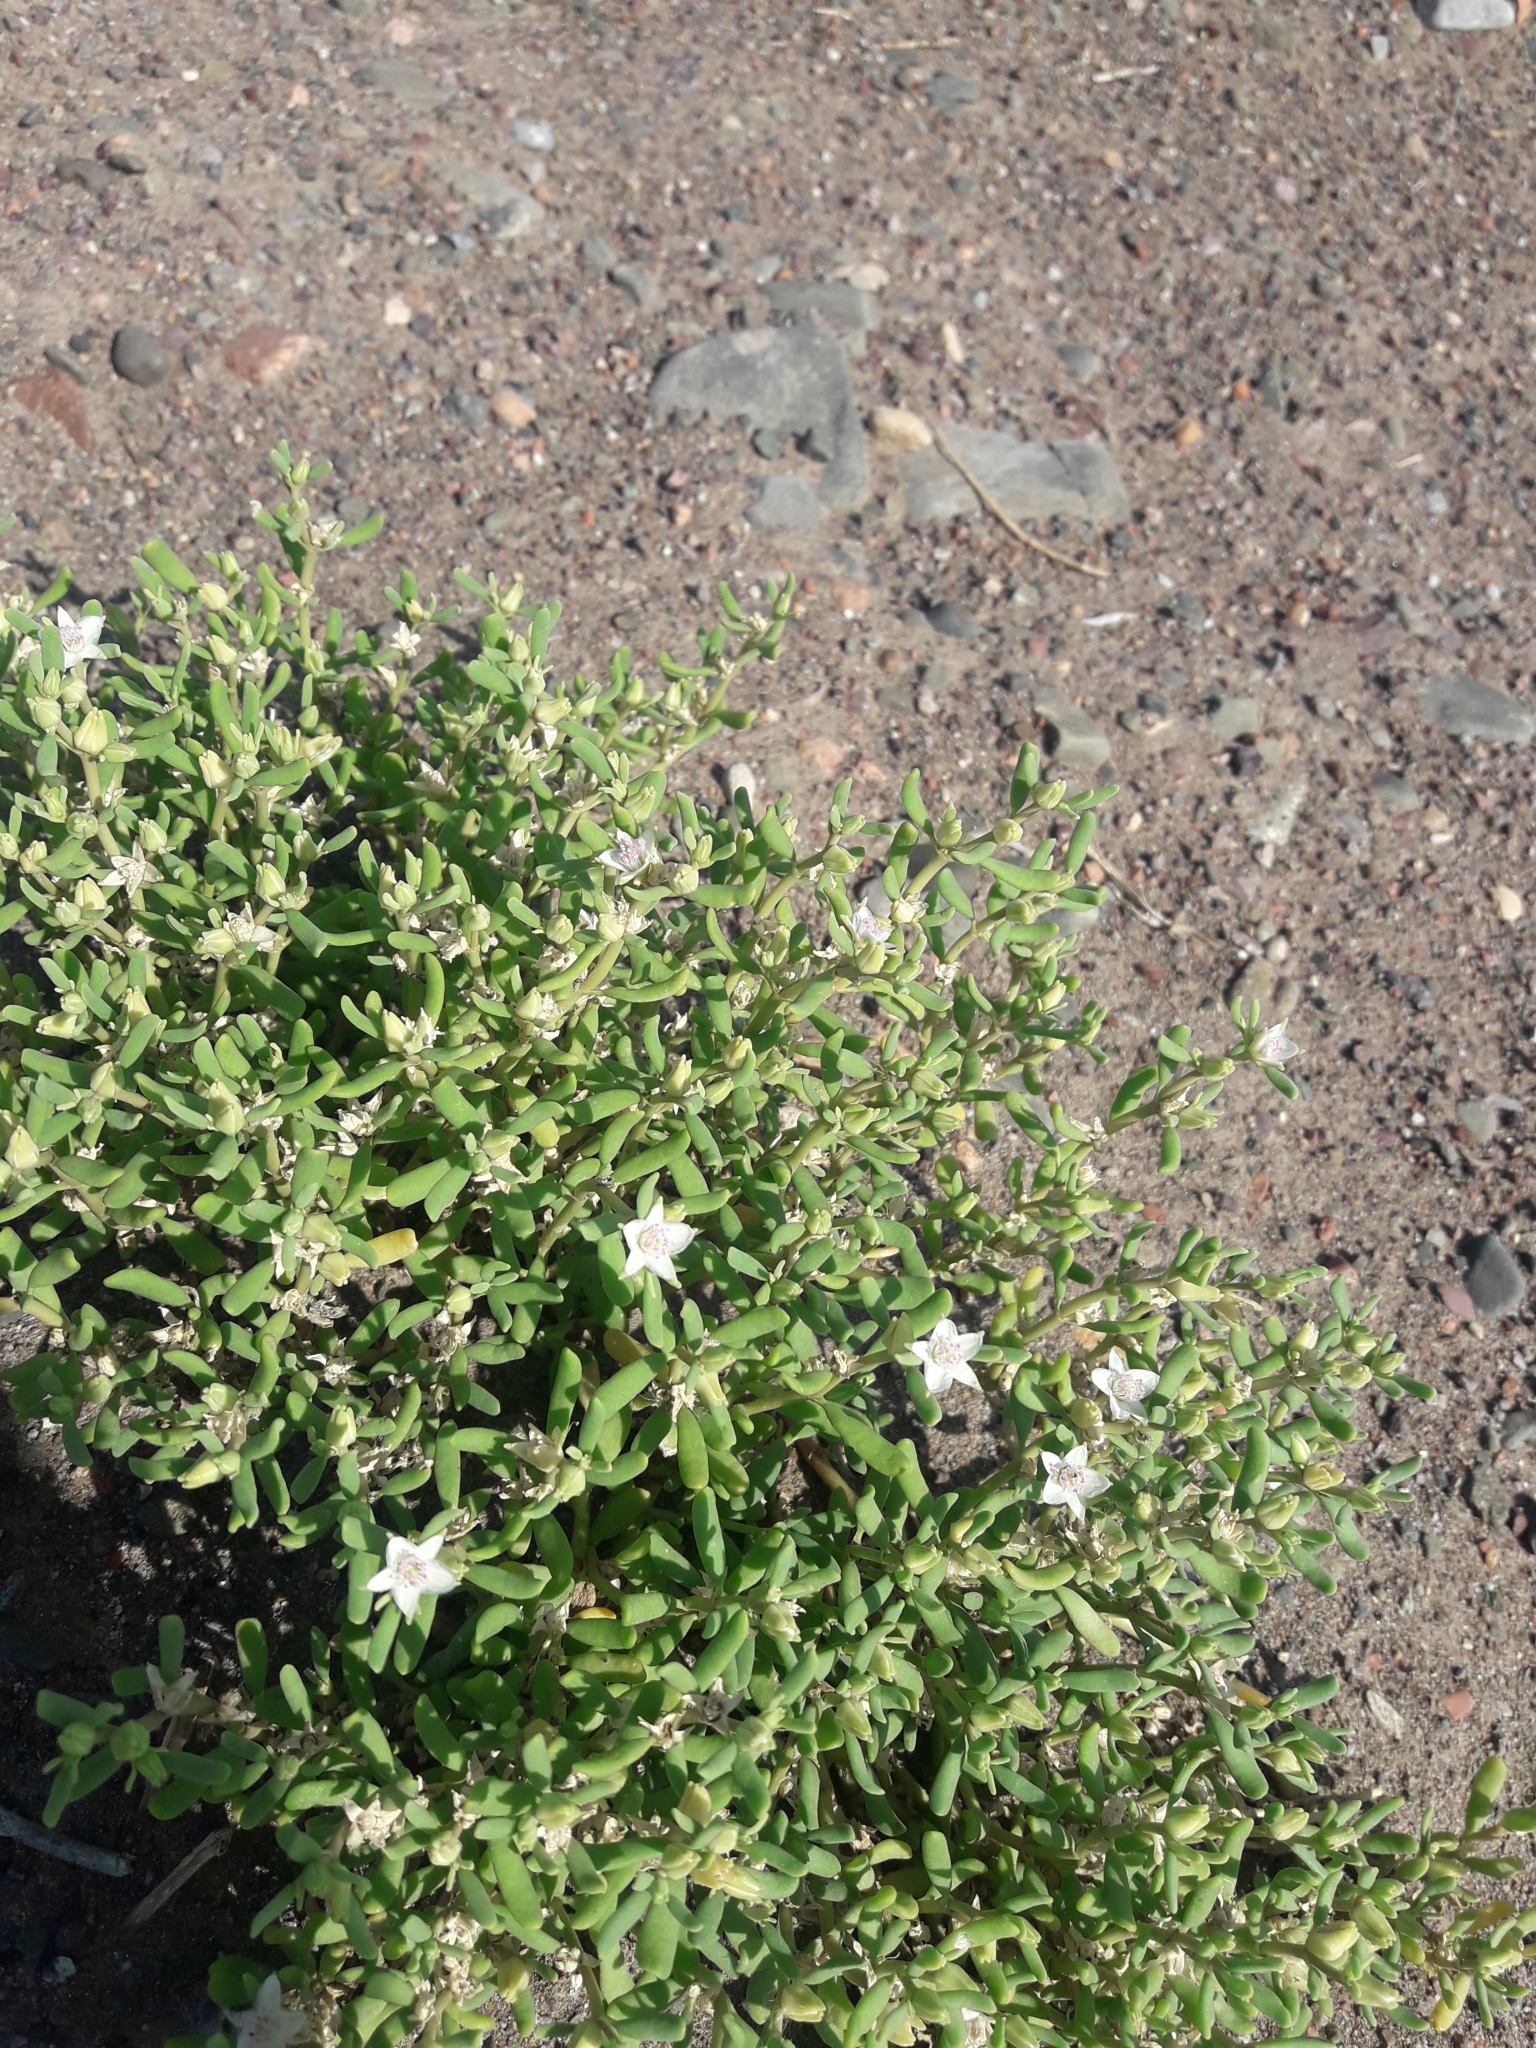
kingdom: Plantae
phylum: Tracheophyta
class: Magnoliopsida
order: Caryophyllales
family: Aizoaceae
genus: Sesuvium
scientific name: Sesuvium portulacastrum
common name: Sea-purslane
